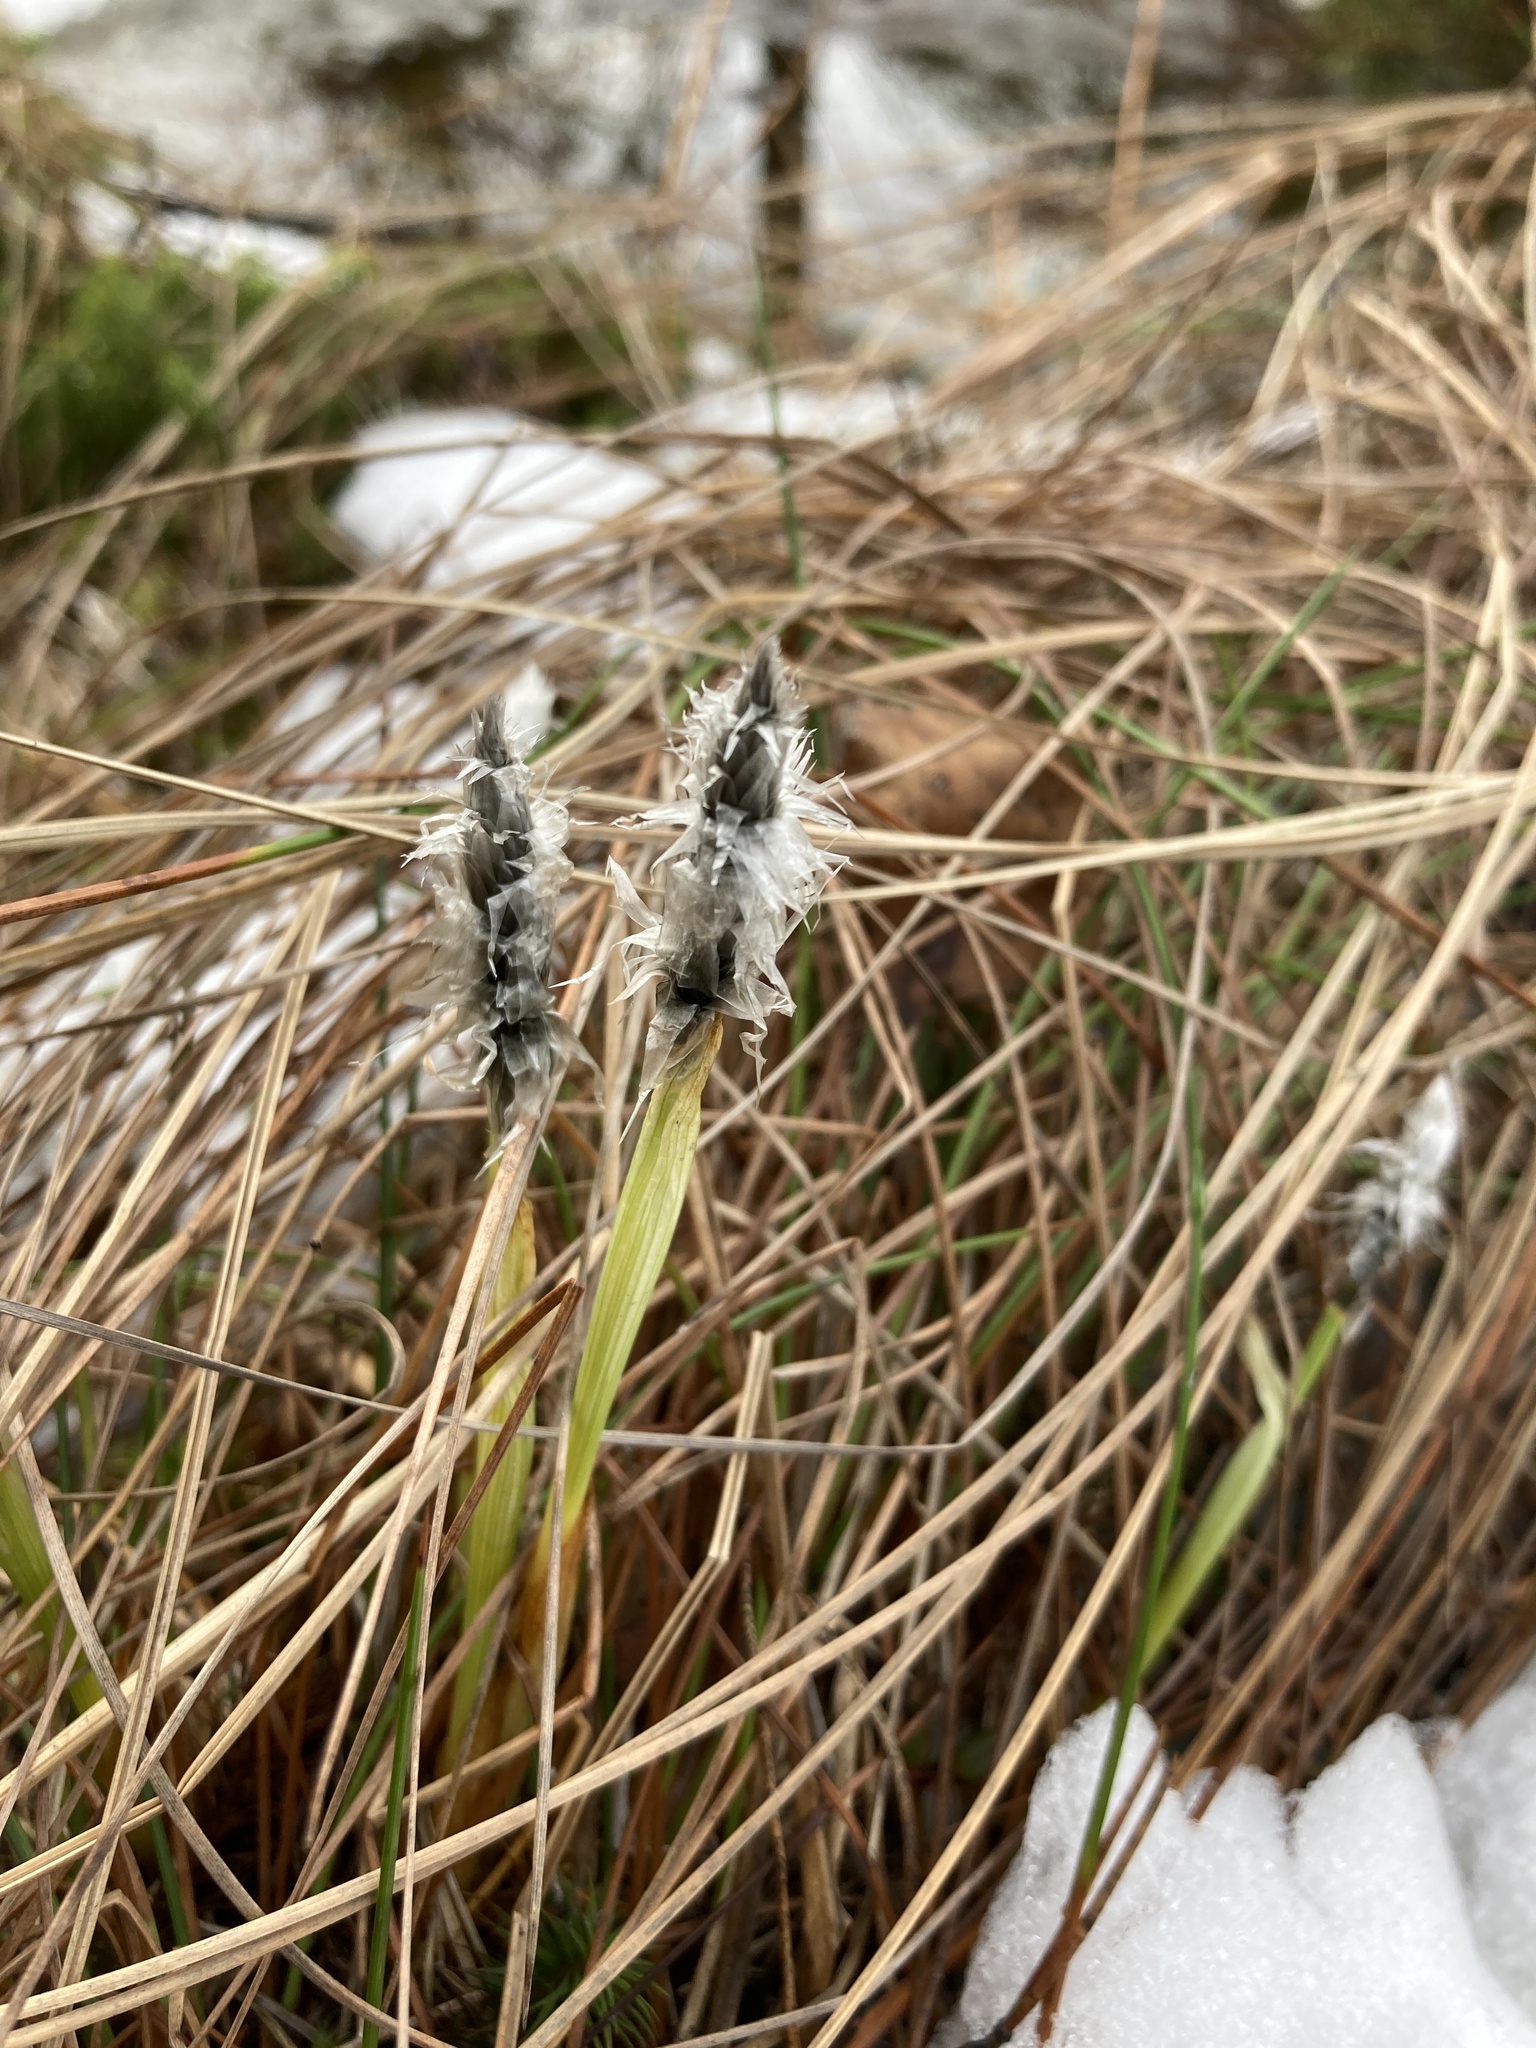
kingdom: Plantae
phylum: Tracheophyta
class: Liliopsida
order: Poales
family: Cyperaceae
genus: Eriophorum
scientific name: Eriophorum vaginatum
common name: Hare's-tail cottongrass
